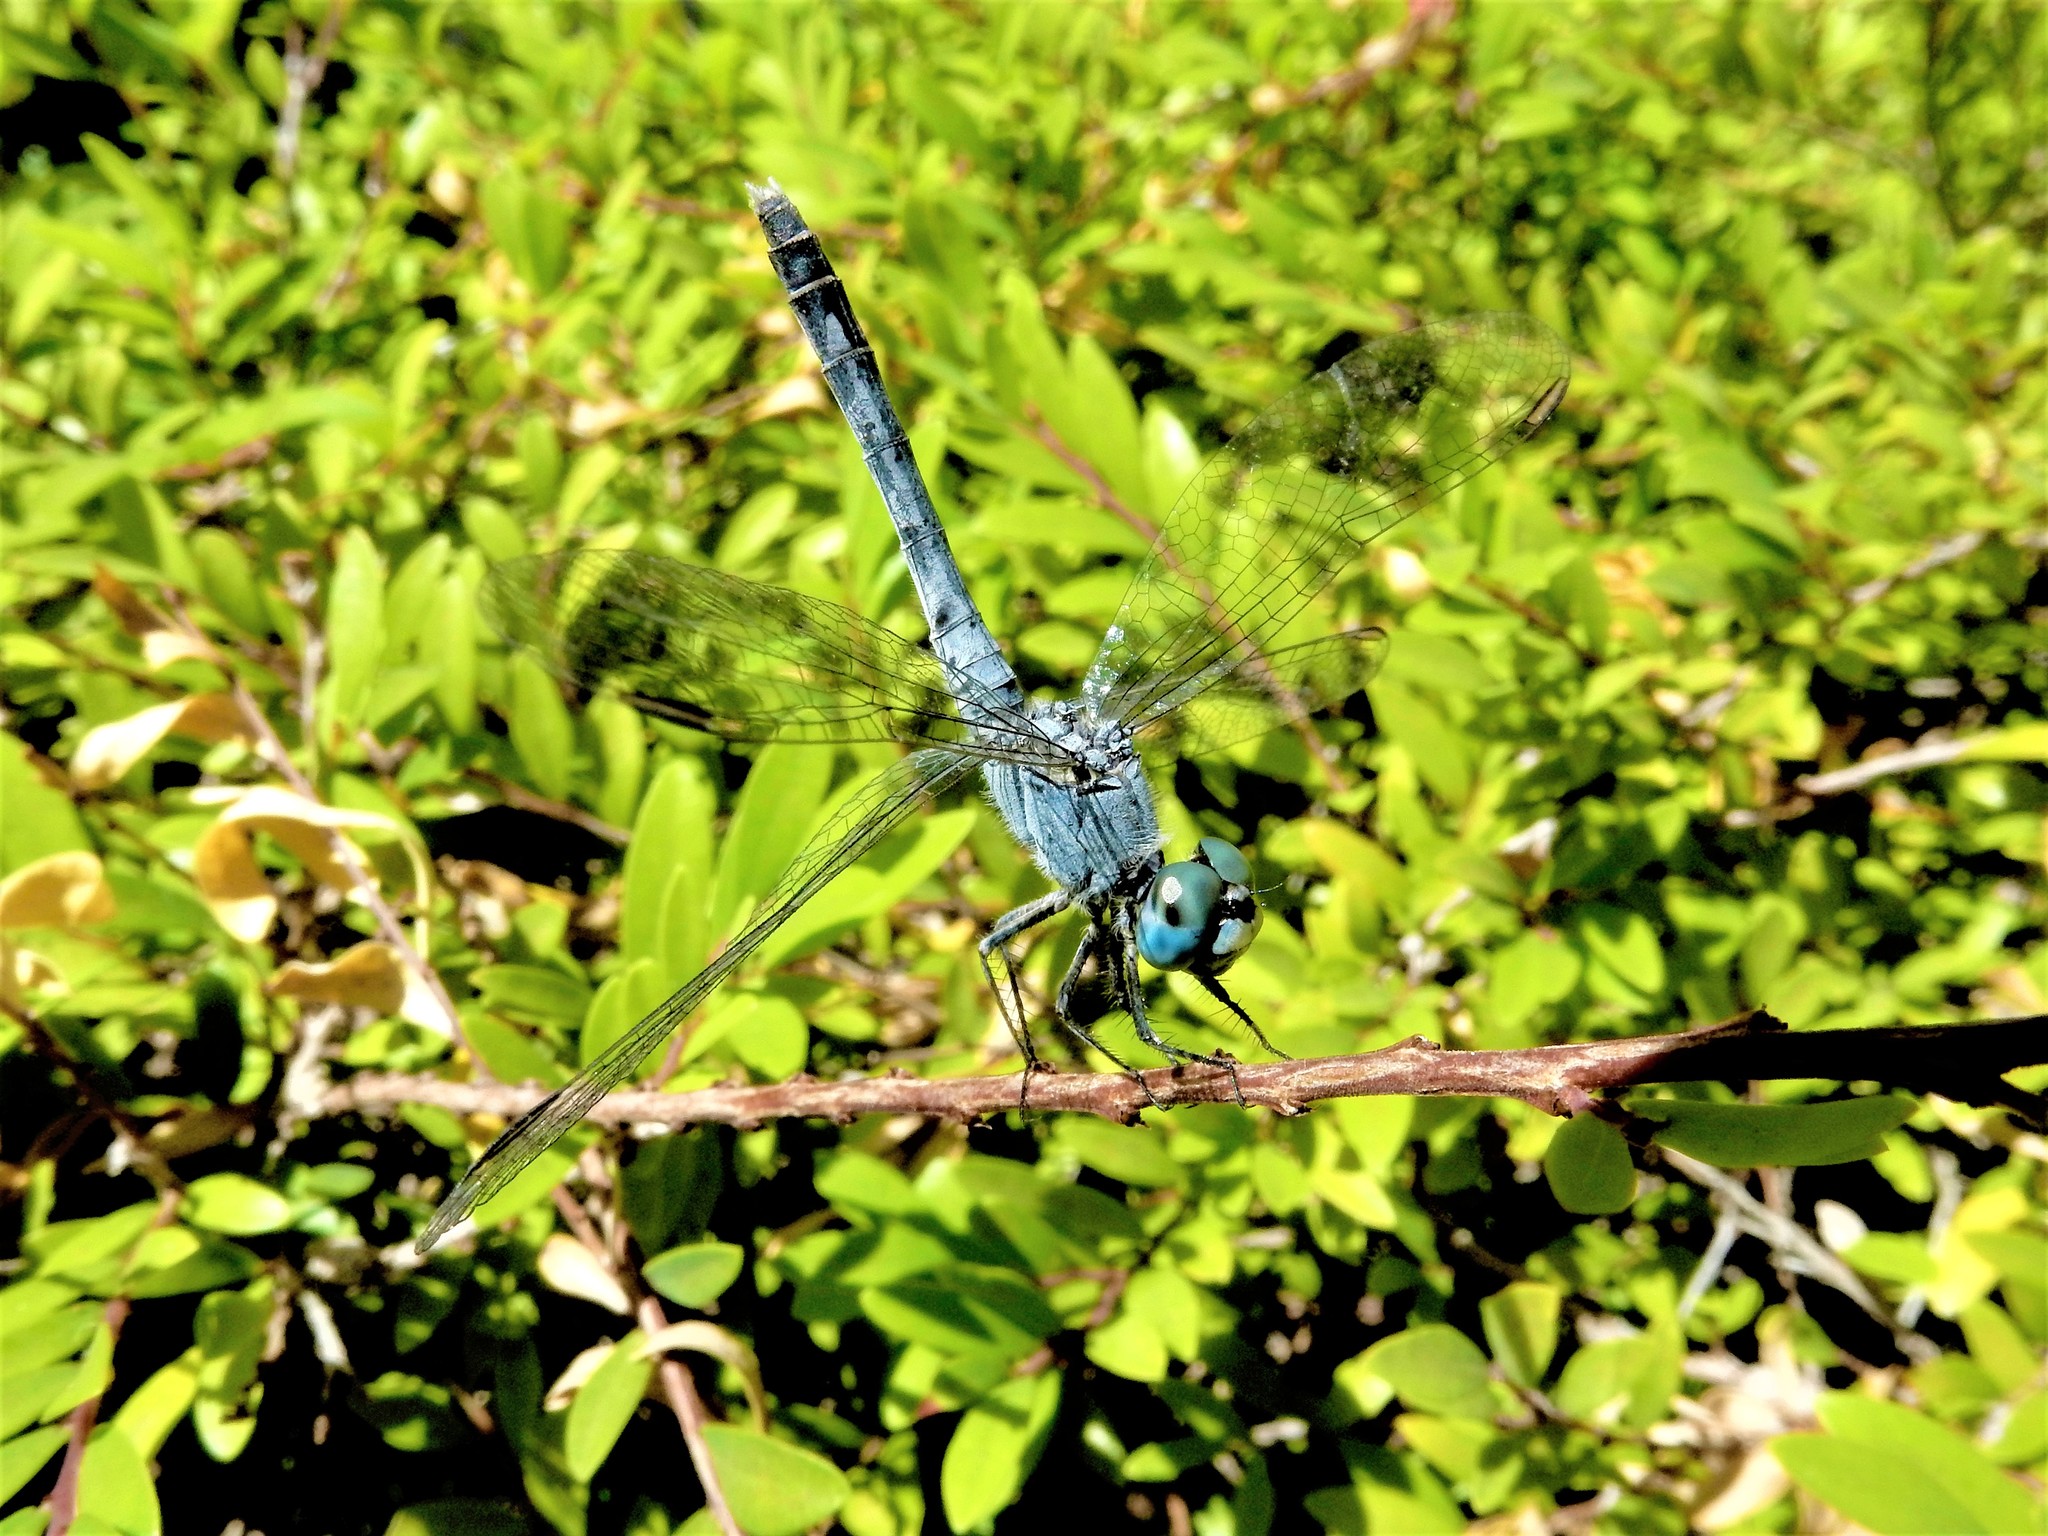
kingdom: Animalia
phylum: Arthropoda
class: Insecta
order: Odonata
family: Libellulidae
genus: Diplacodes
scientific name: Diplacodes trivialis
